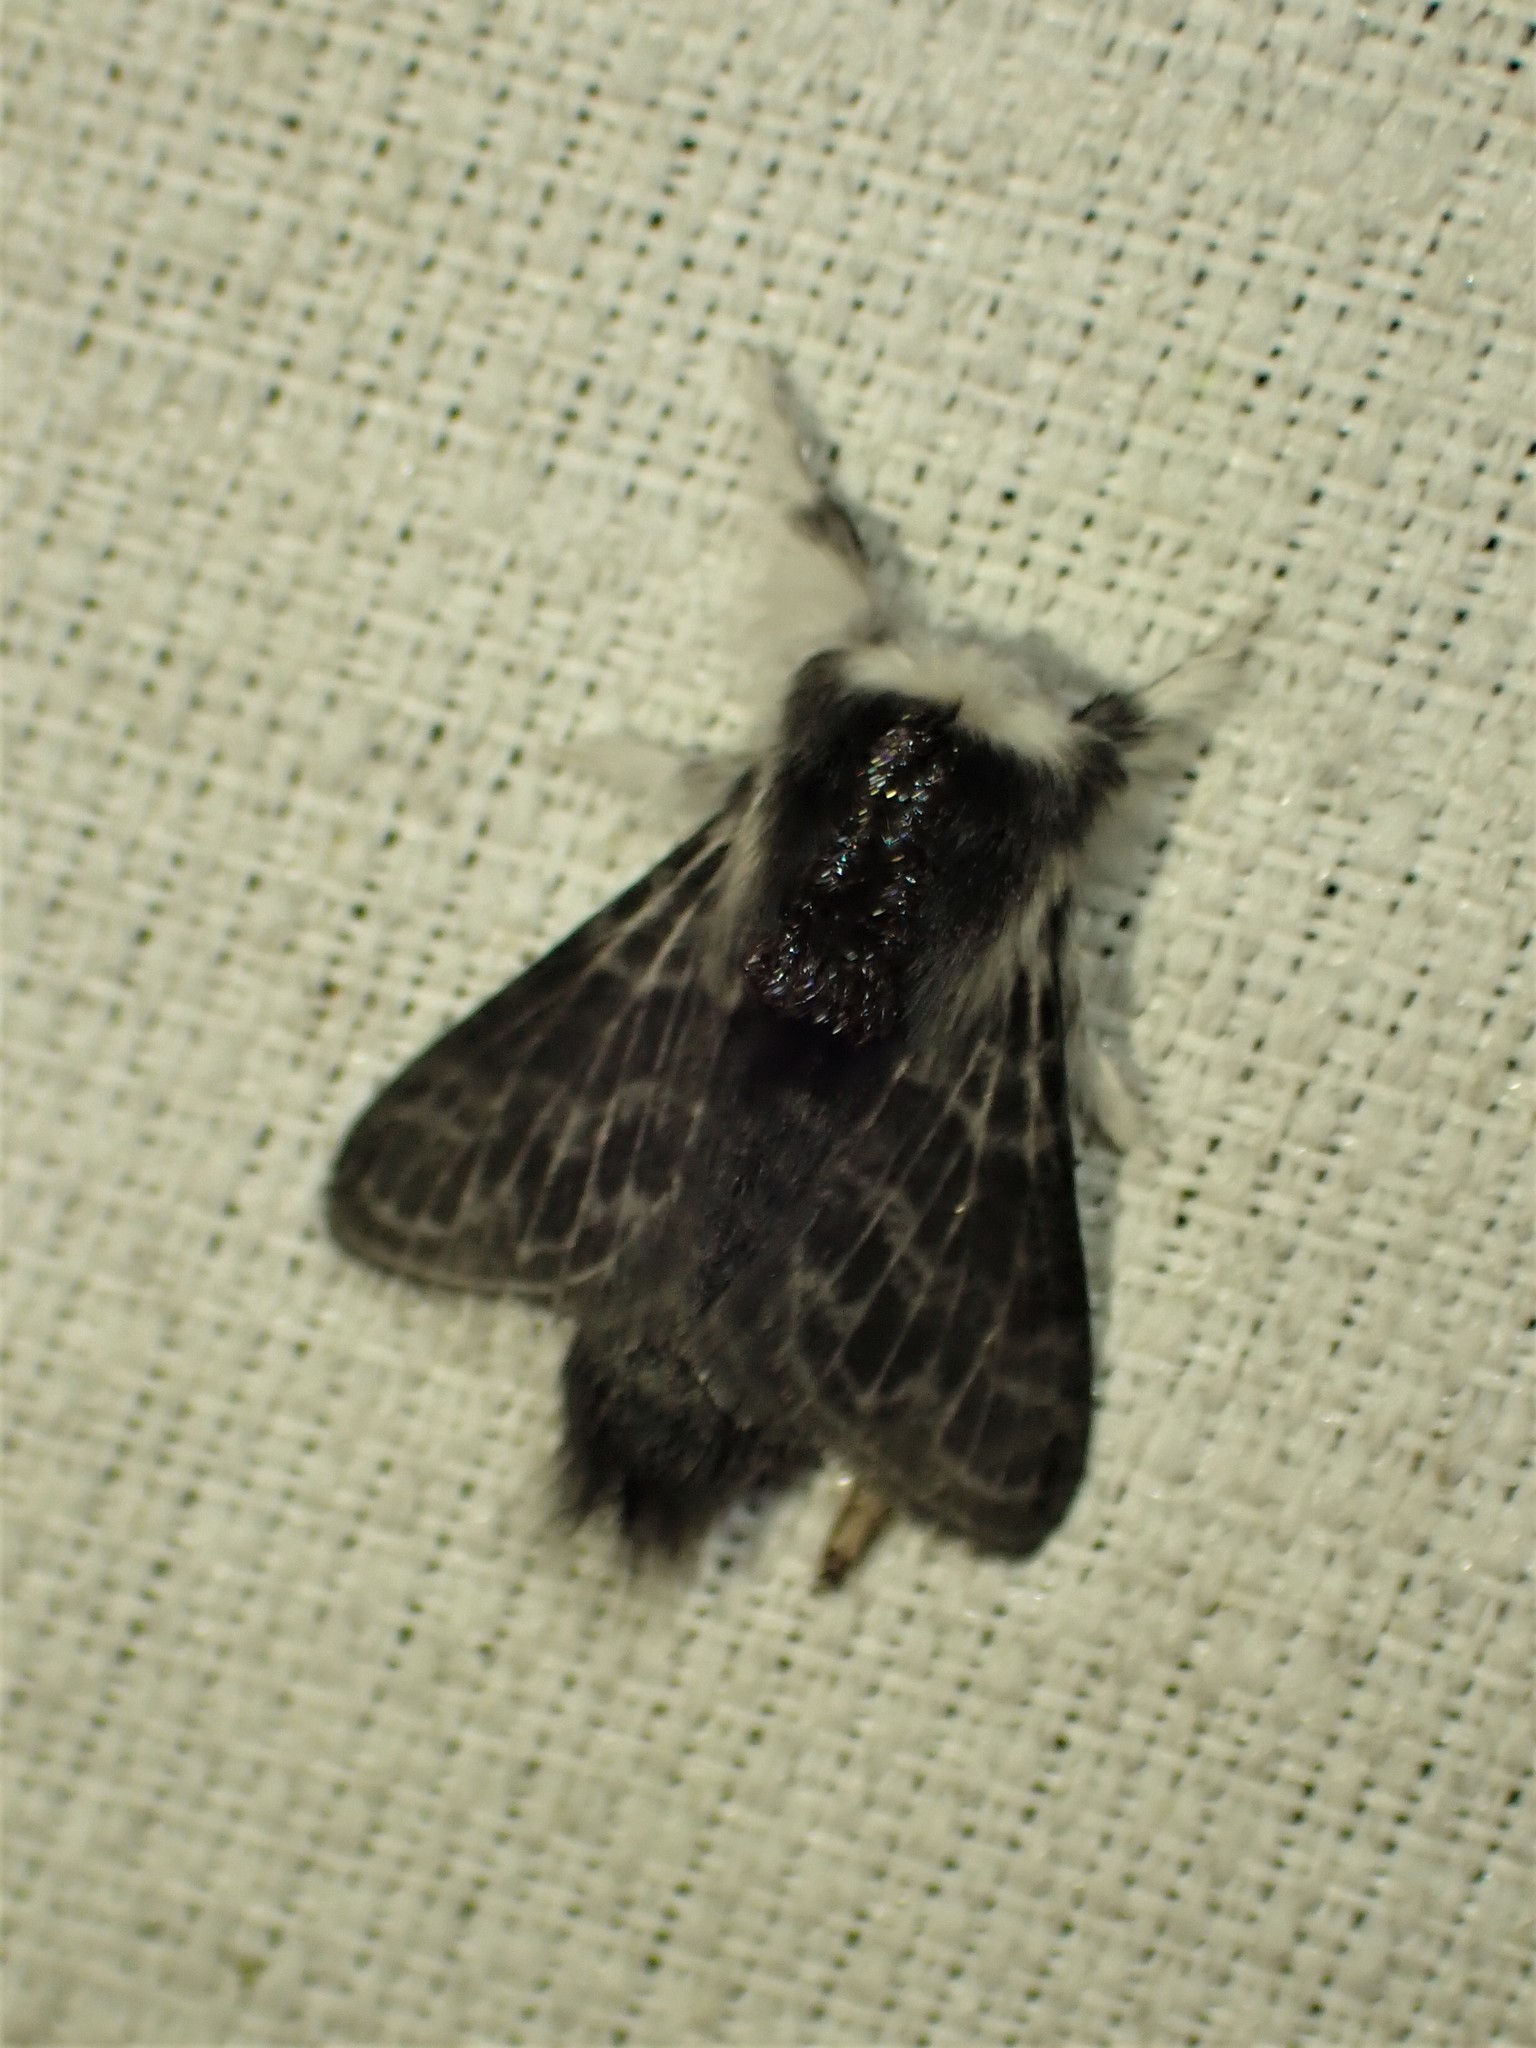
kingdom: Animalia
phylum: Arthropoda
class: Insecta
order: Lepidoptera
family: Lasiocampidae
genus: Tolype
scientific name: Tolype laricis
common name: Larch tolype moth
